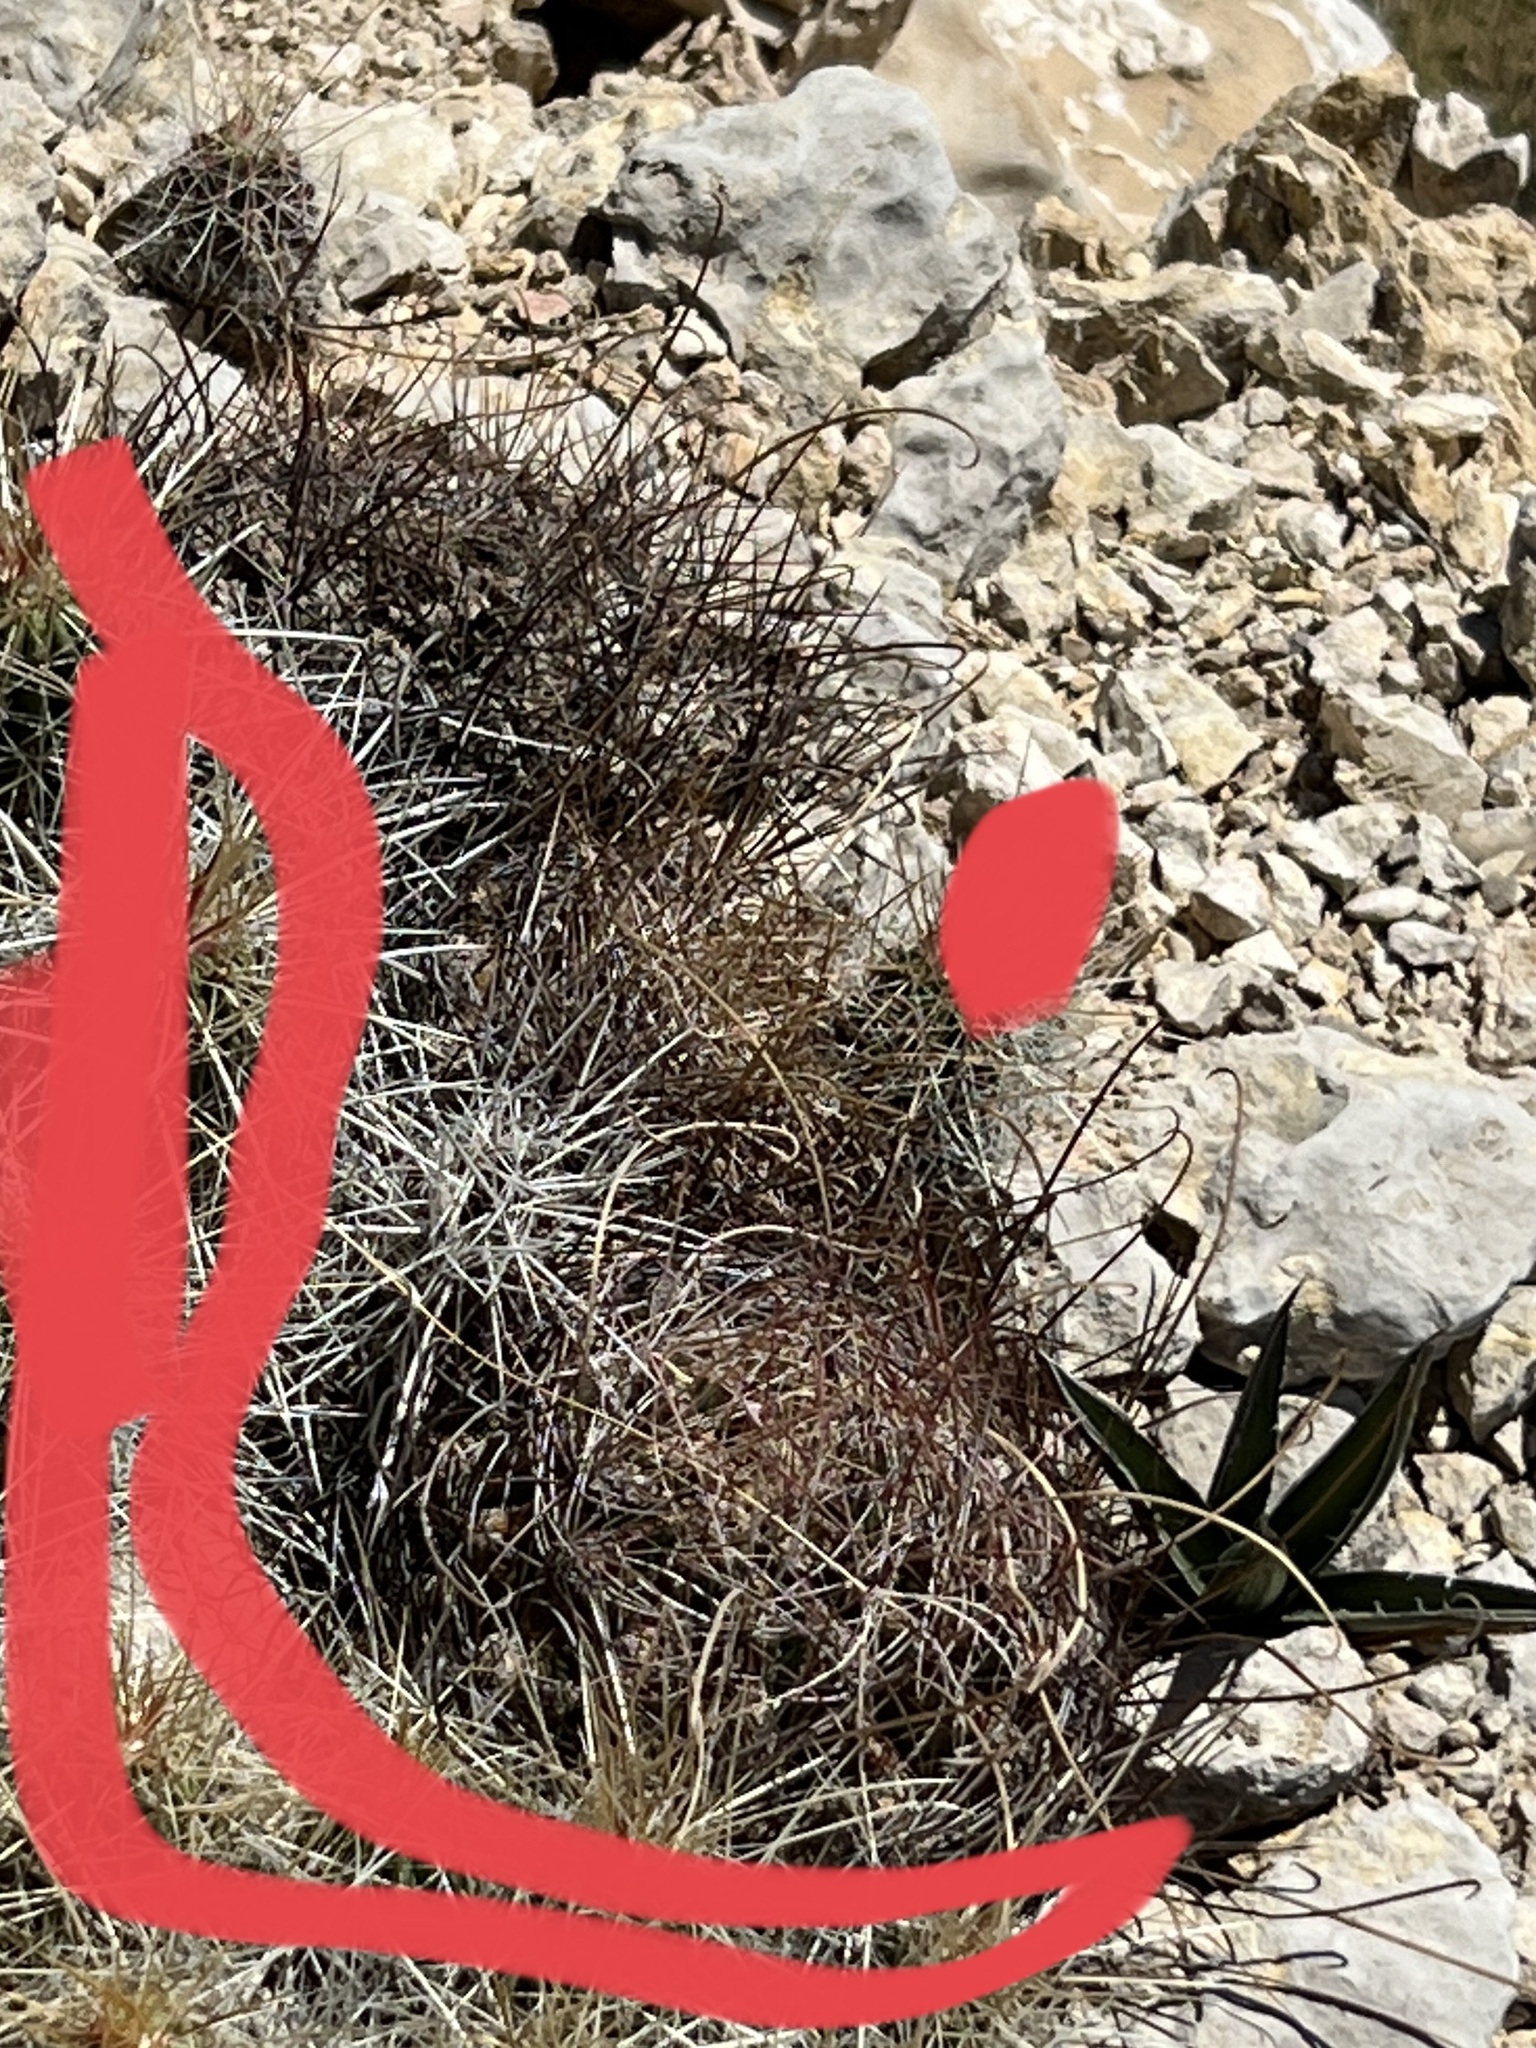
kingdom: Plantae
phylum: Tracheophyta
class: Magnoliopsida
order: Caryophyllales
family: Cactaceae
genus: Bisnaga
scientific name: Bisnaga hamatacantha
